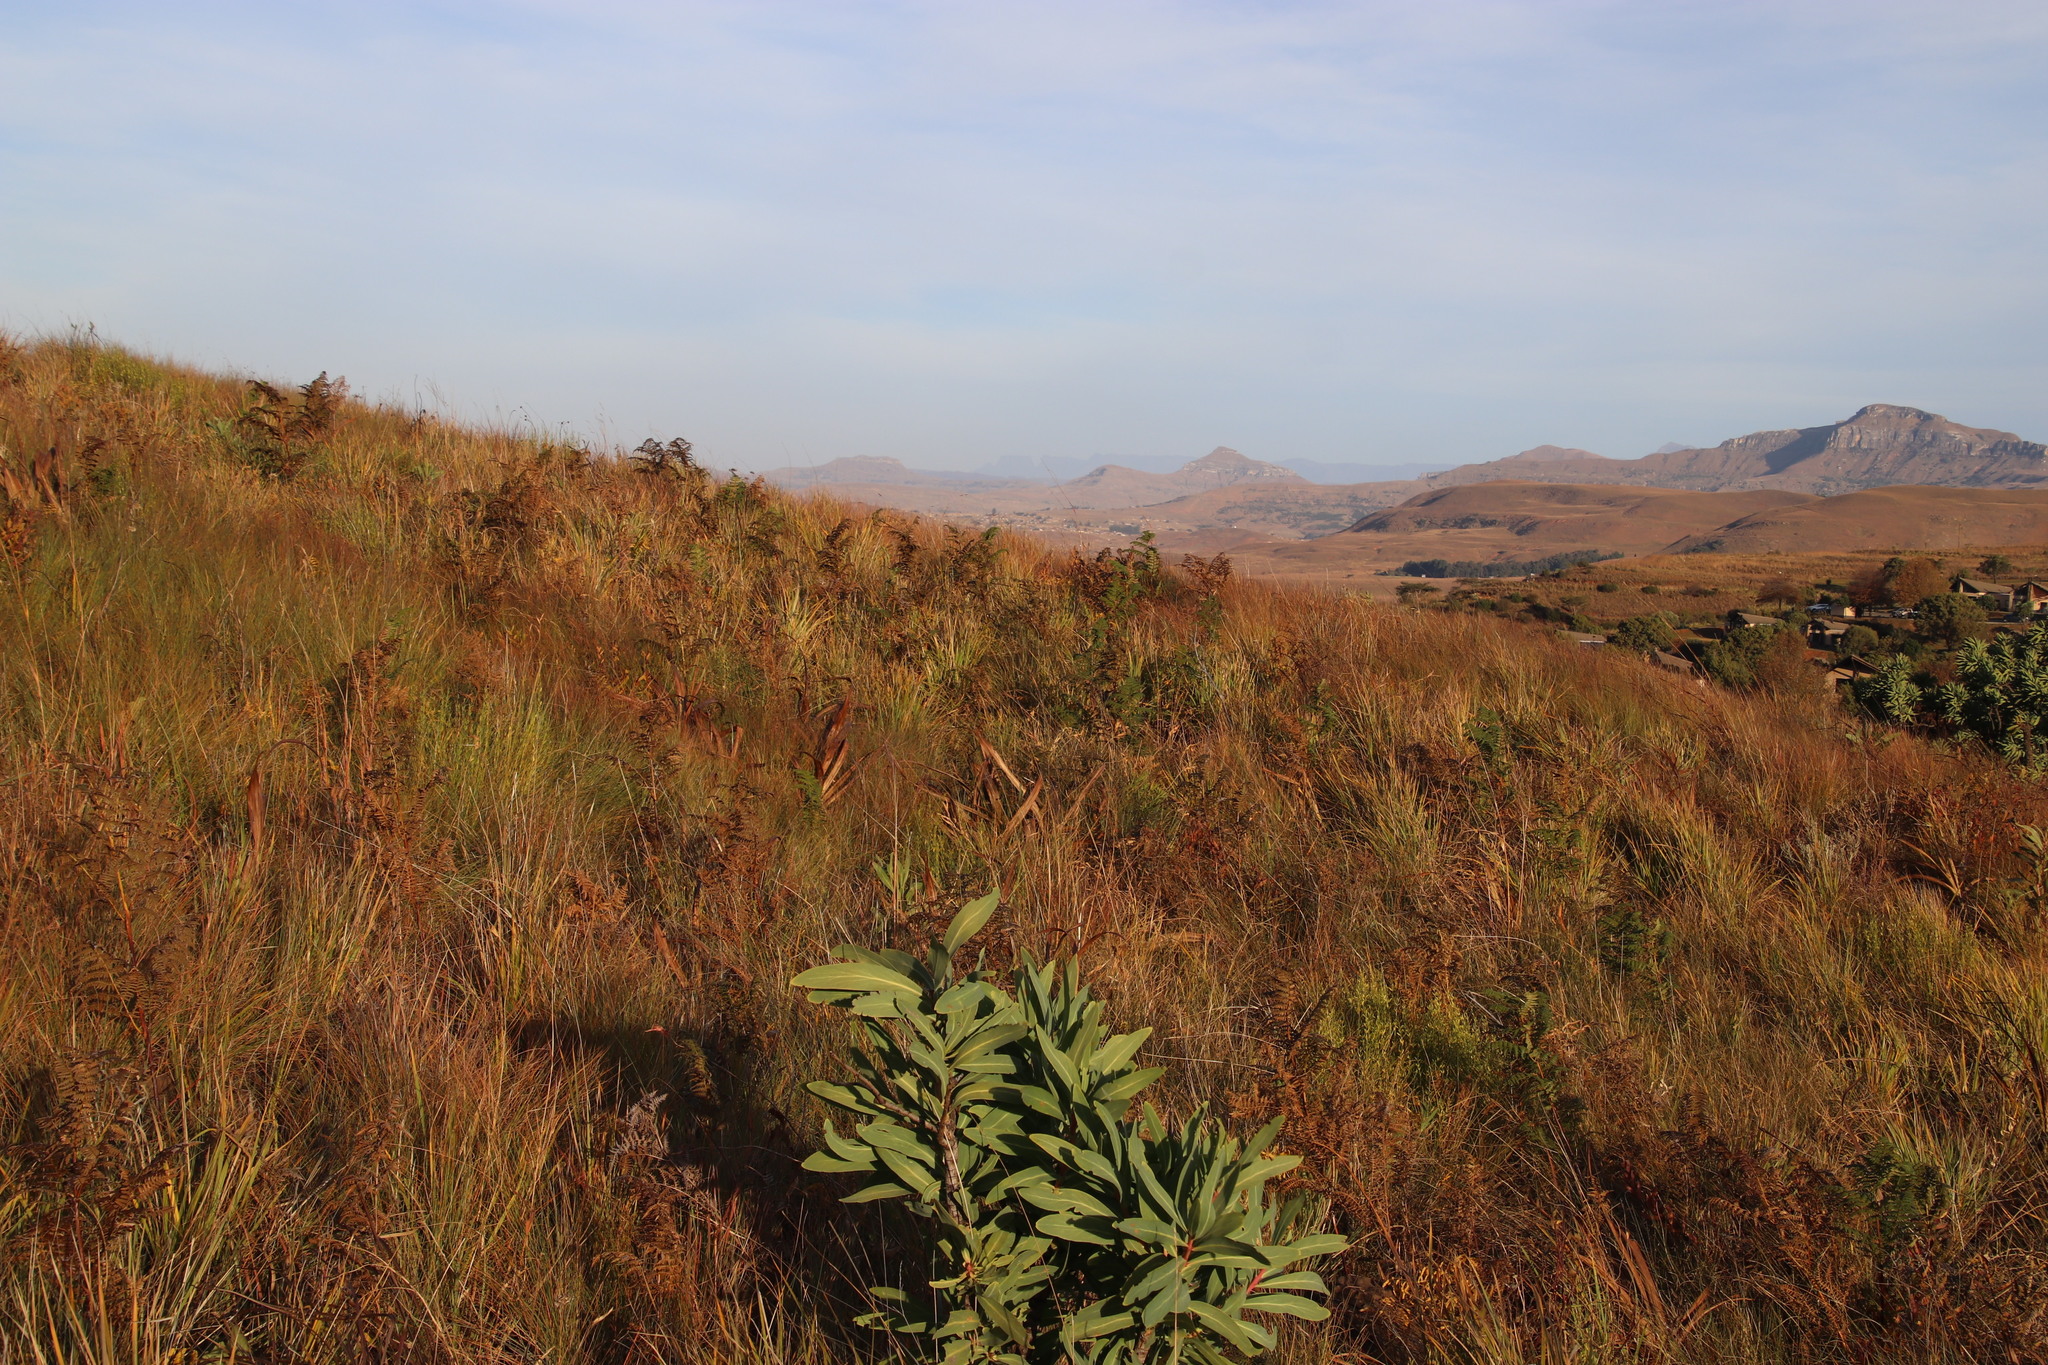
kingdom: Plantae
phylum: Tracheophyta
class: Polypodiopsida
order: Polypodiales
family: Dennstaedtiaceae
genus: Pteridium
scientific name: Pteridium aquilinum
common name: Bracken
